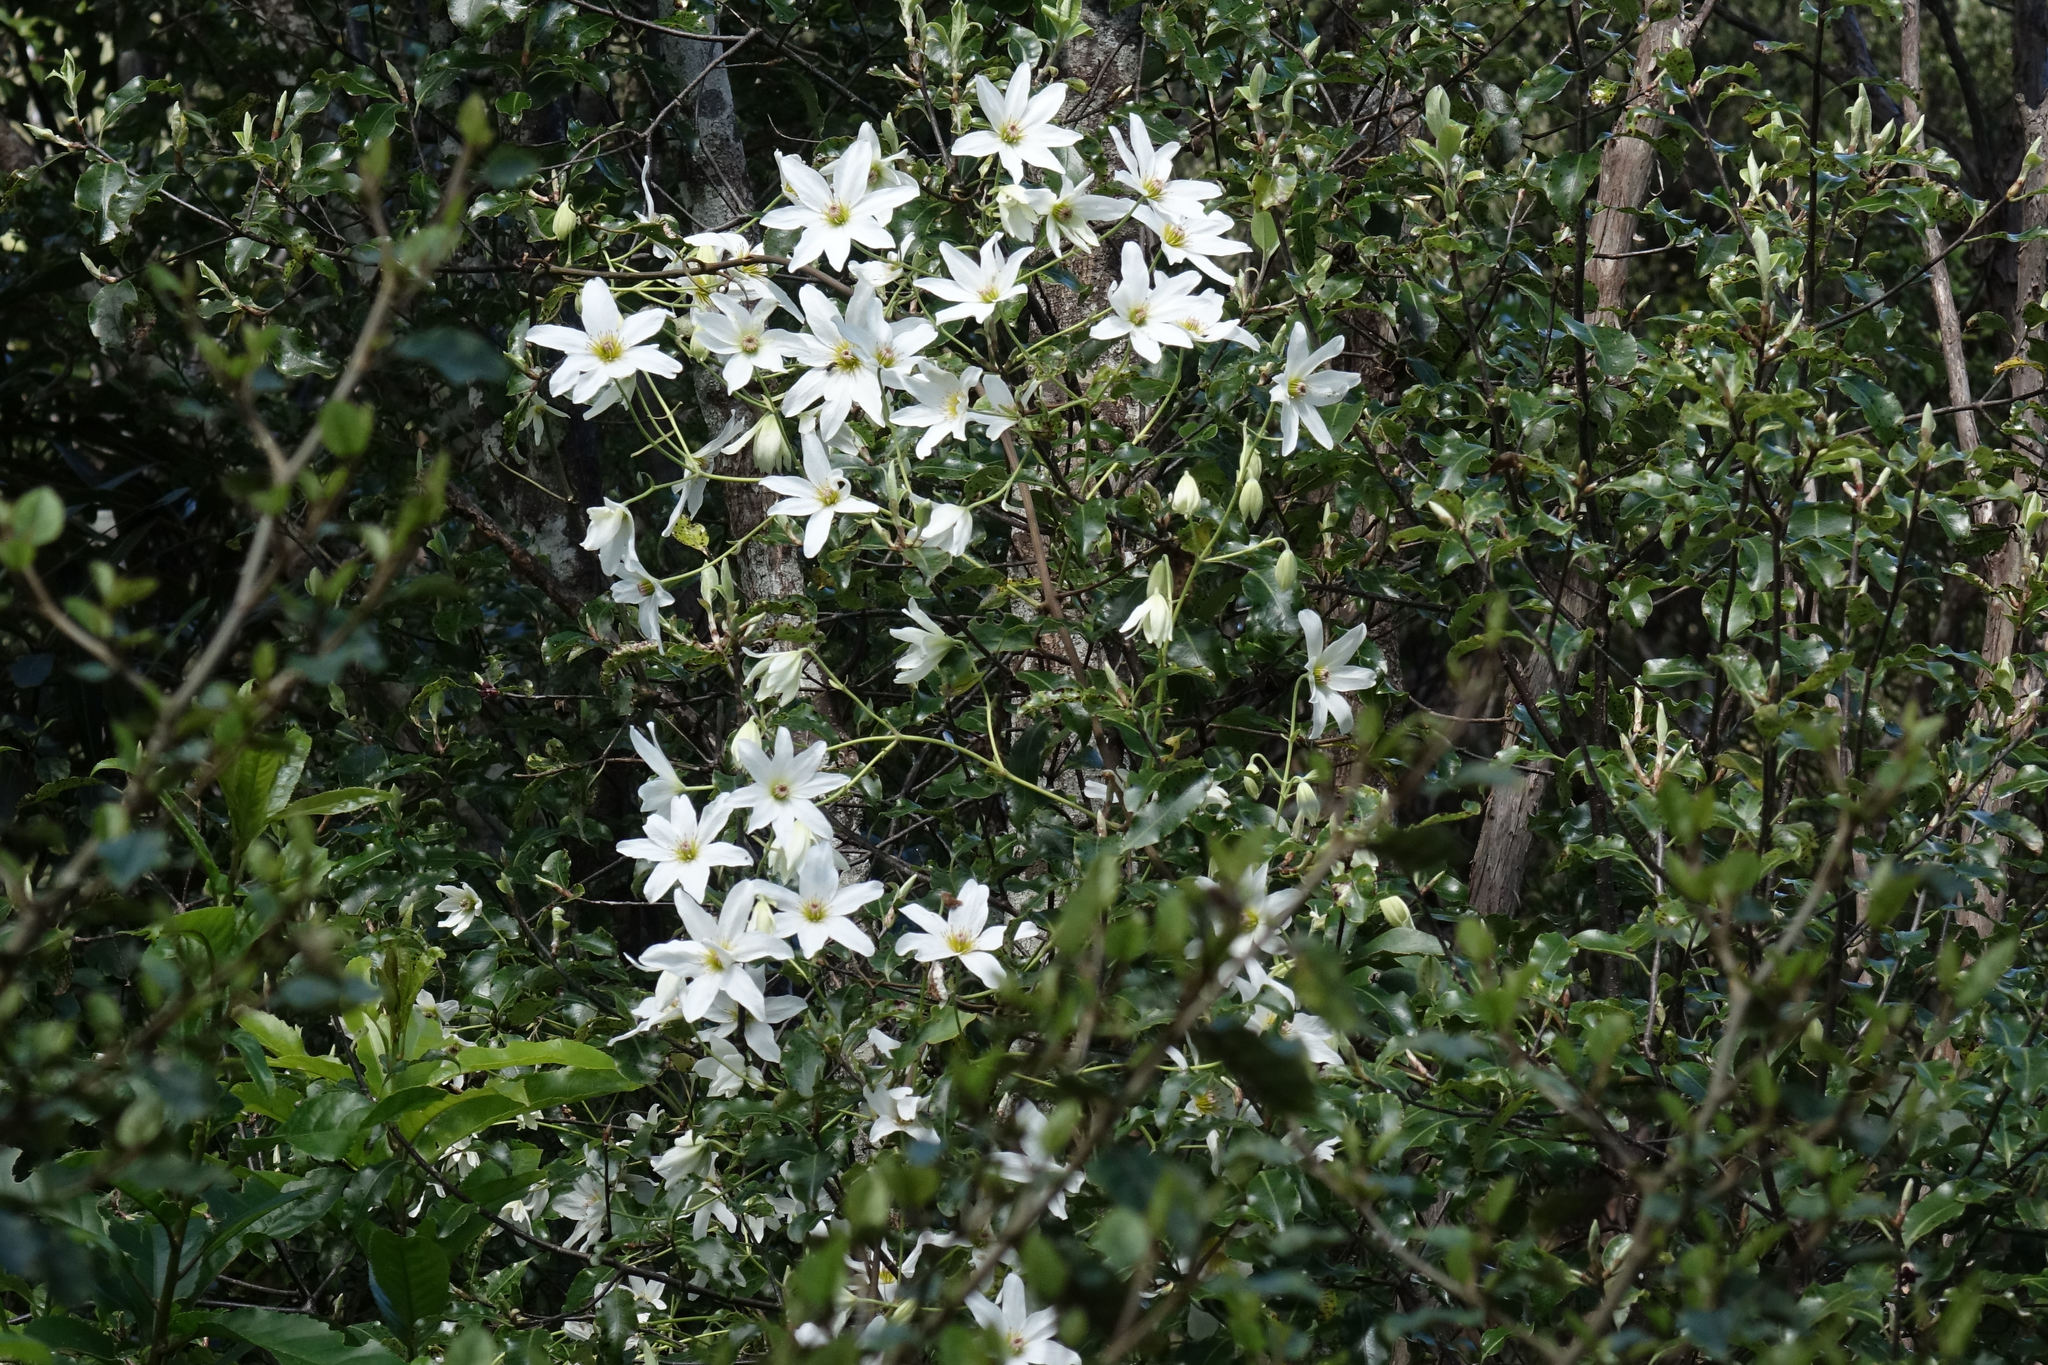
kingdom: Plantae
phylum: Tracheophyta
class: Magnoliopsida
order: Ranunculales
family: Ranunculaceae
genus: Clematis
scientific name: Clematis paniculata
